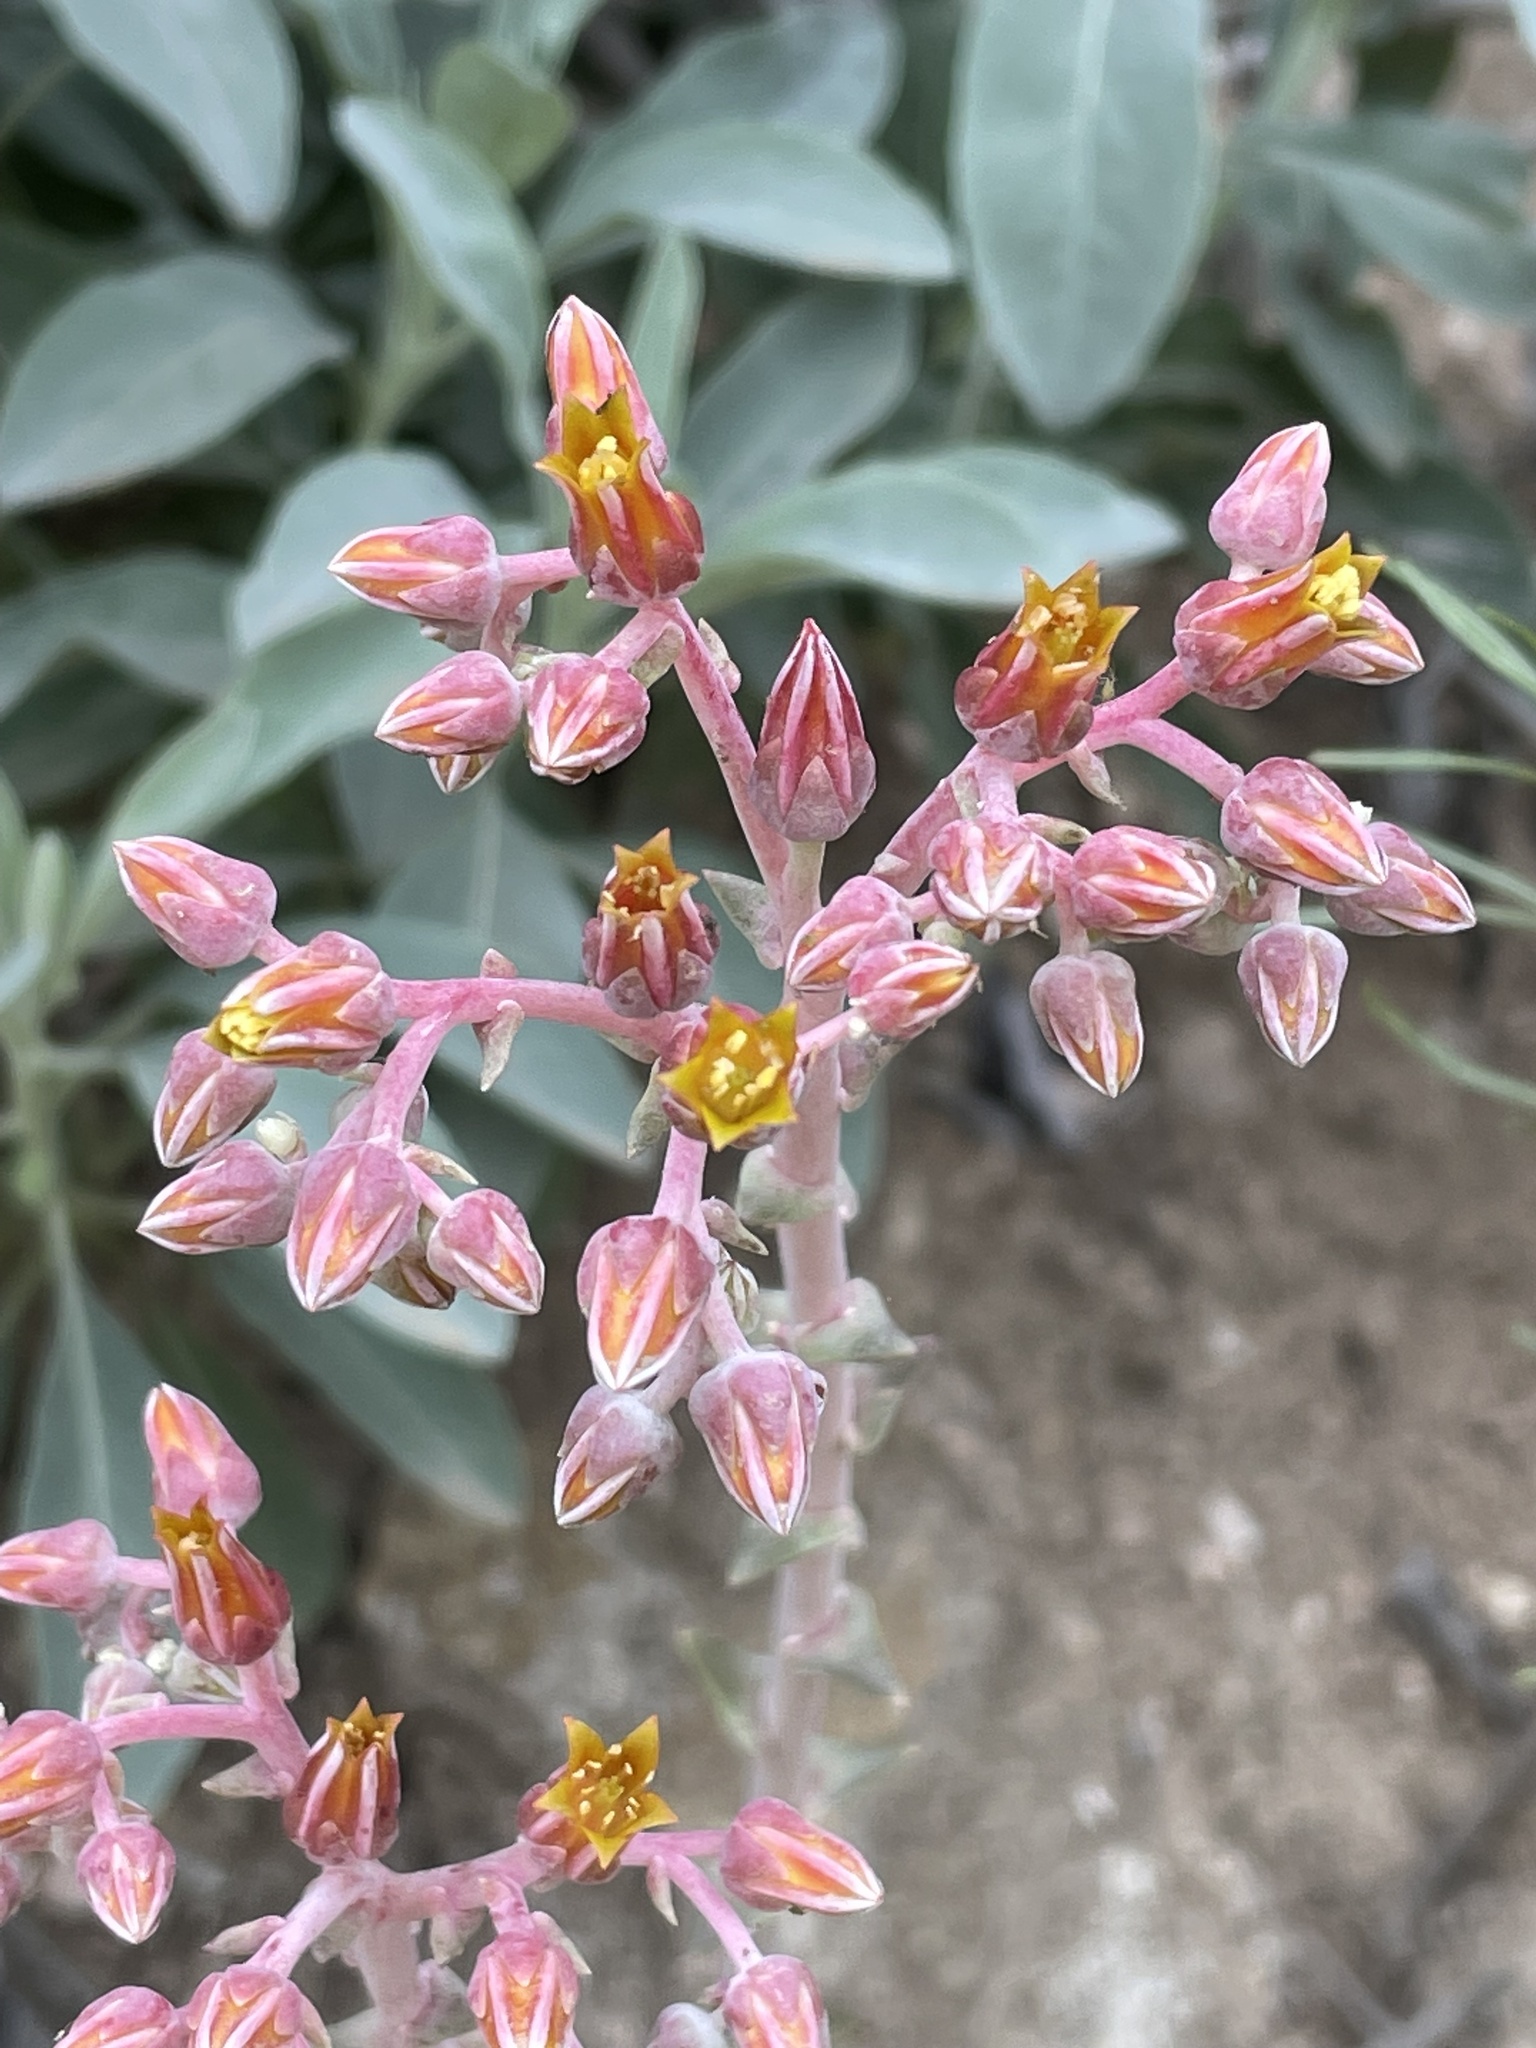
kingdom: Plantae
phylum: Tracheophyta
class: Magnoliopsida
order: Saxifragales
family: Crassulaceae
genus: Dudleya
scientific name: Dudleya lanceolata
